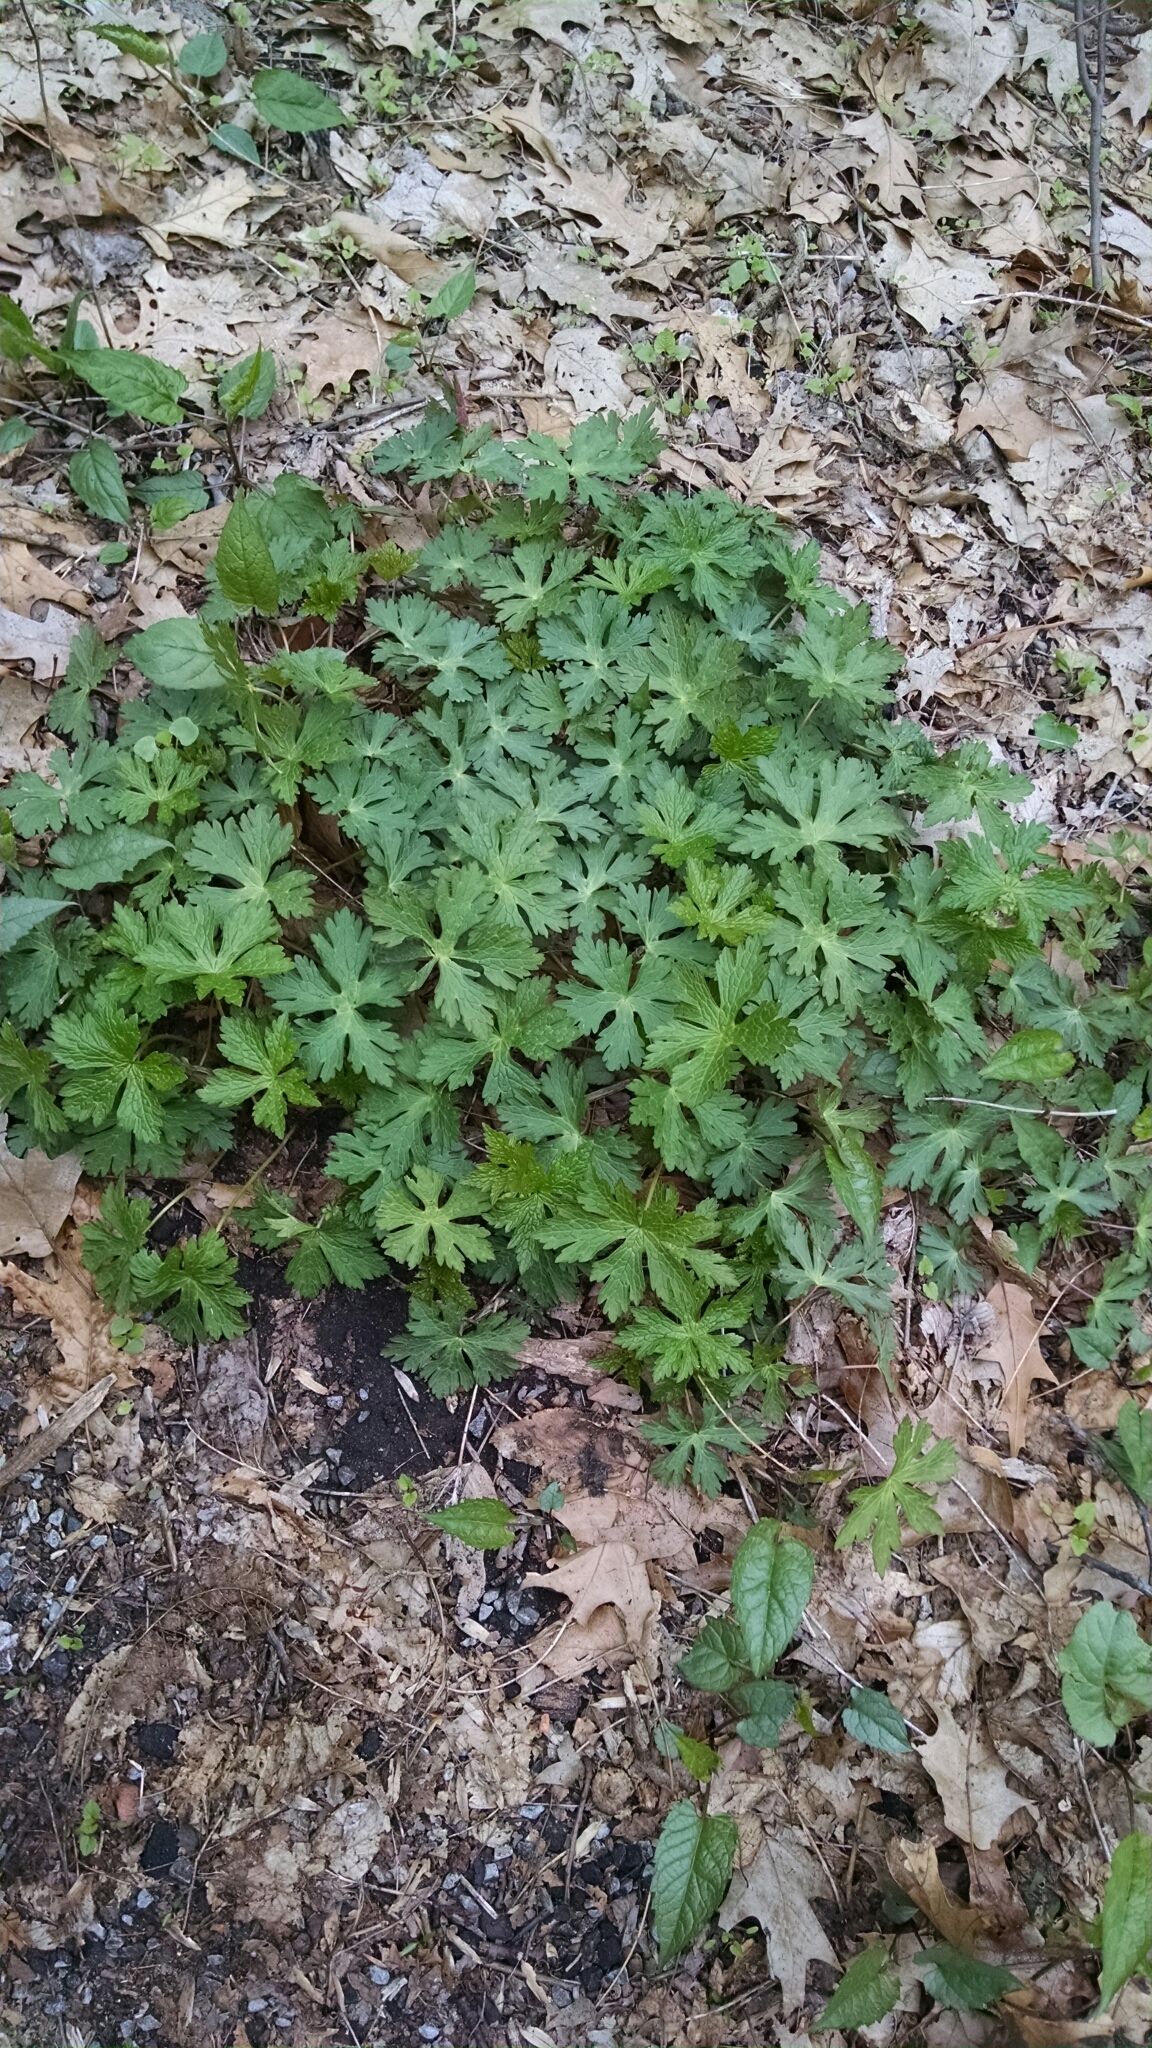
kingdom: Plantae
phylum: Tracheophyta
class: Magnoliopsida
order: Geraniales
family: Geraniaceae
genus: Geranium
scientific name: Geranium maculatum
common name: Spotted geranium
